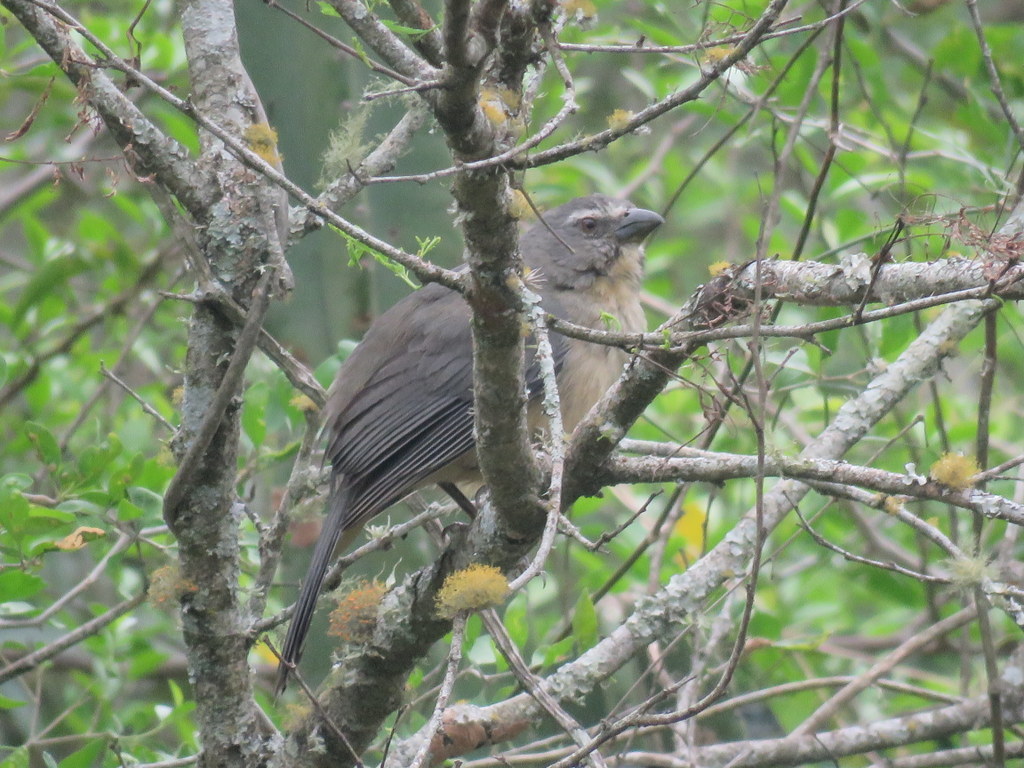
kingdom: Animalia
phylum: Chordata
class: Aves
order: Passeriformes
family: Thraupidae
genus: Saltator
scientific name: Saltator coerulescens
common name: Grayish saltator
